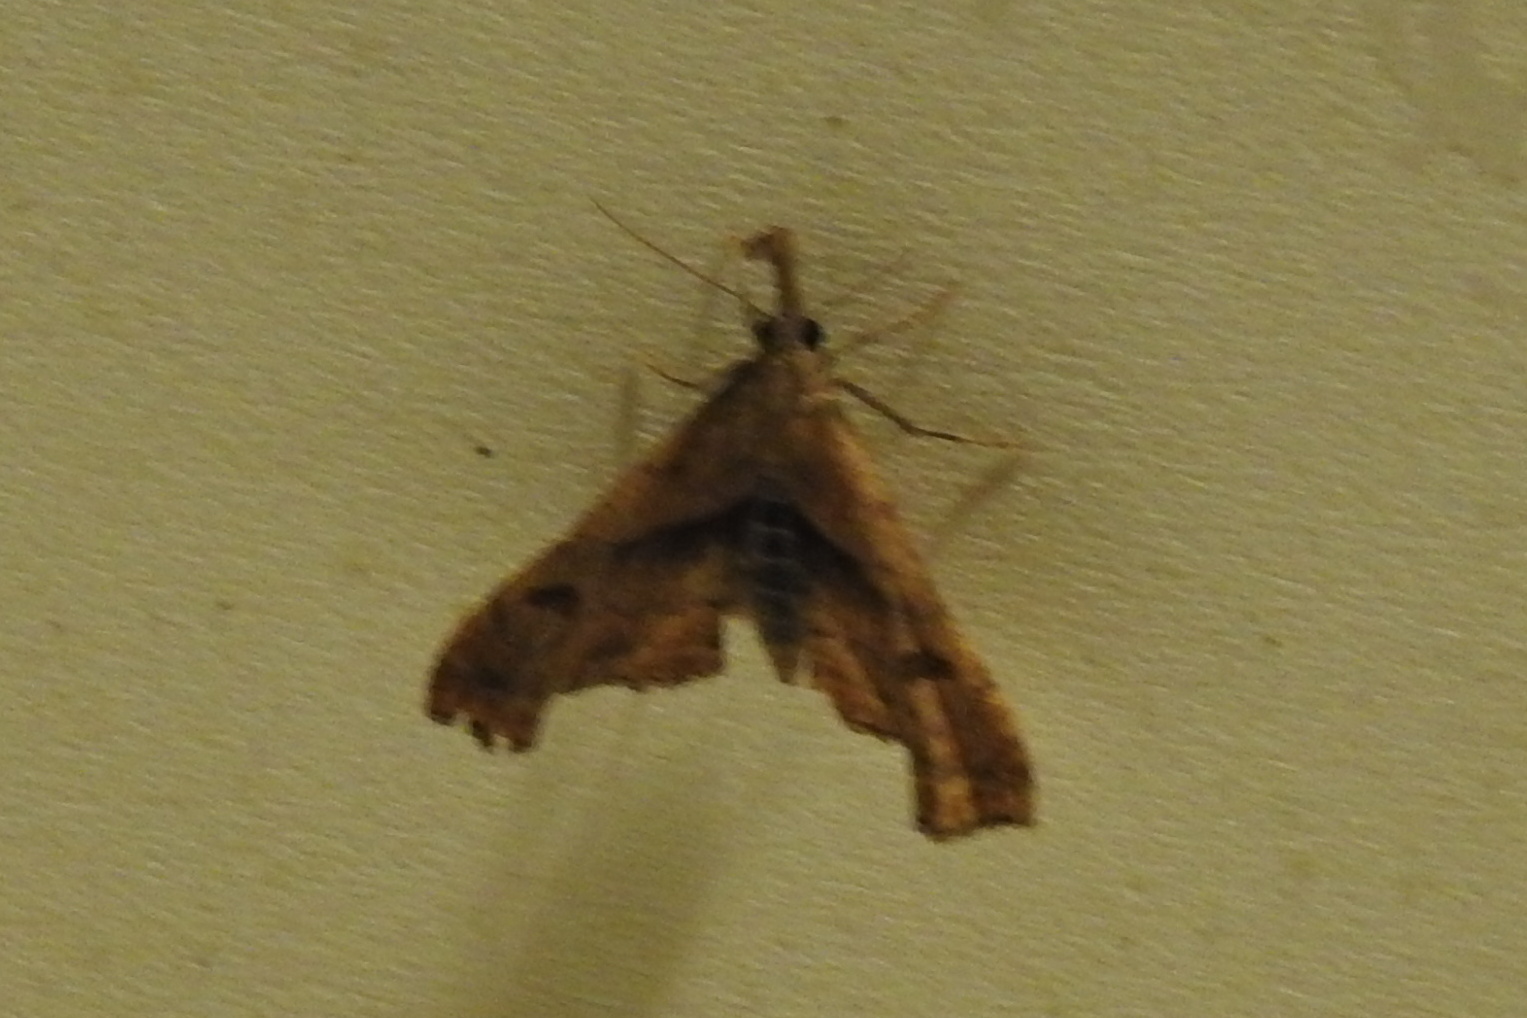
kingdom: Animalia
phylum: Arthropoda
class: Insecta
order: Lepidoptera
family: Erebidae
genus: Palthis
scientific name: Palthis angulalis
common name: Dark-spotted palthis moth
